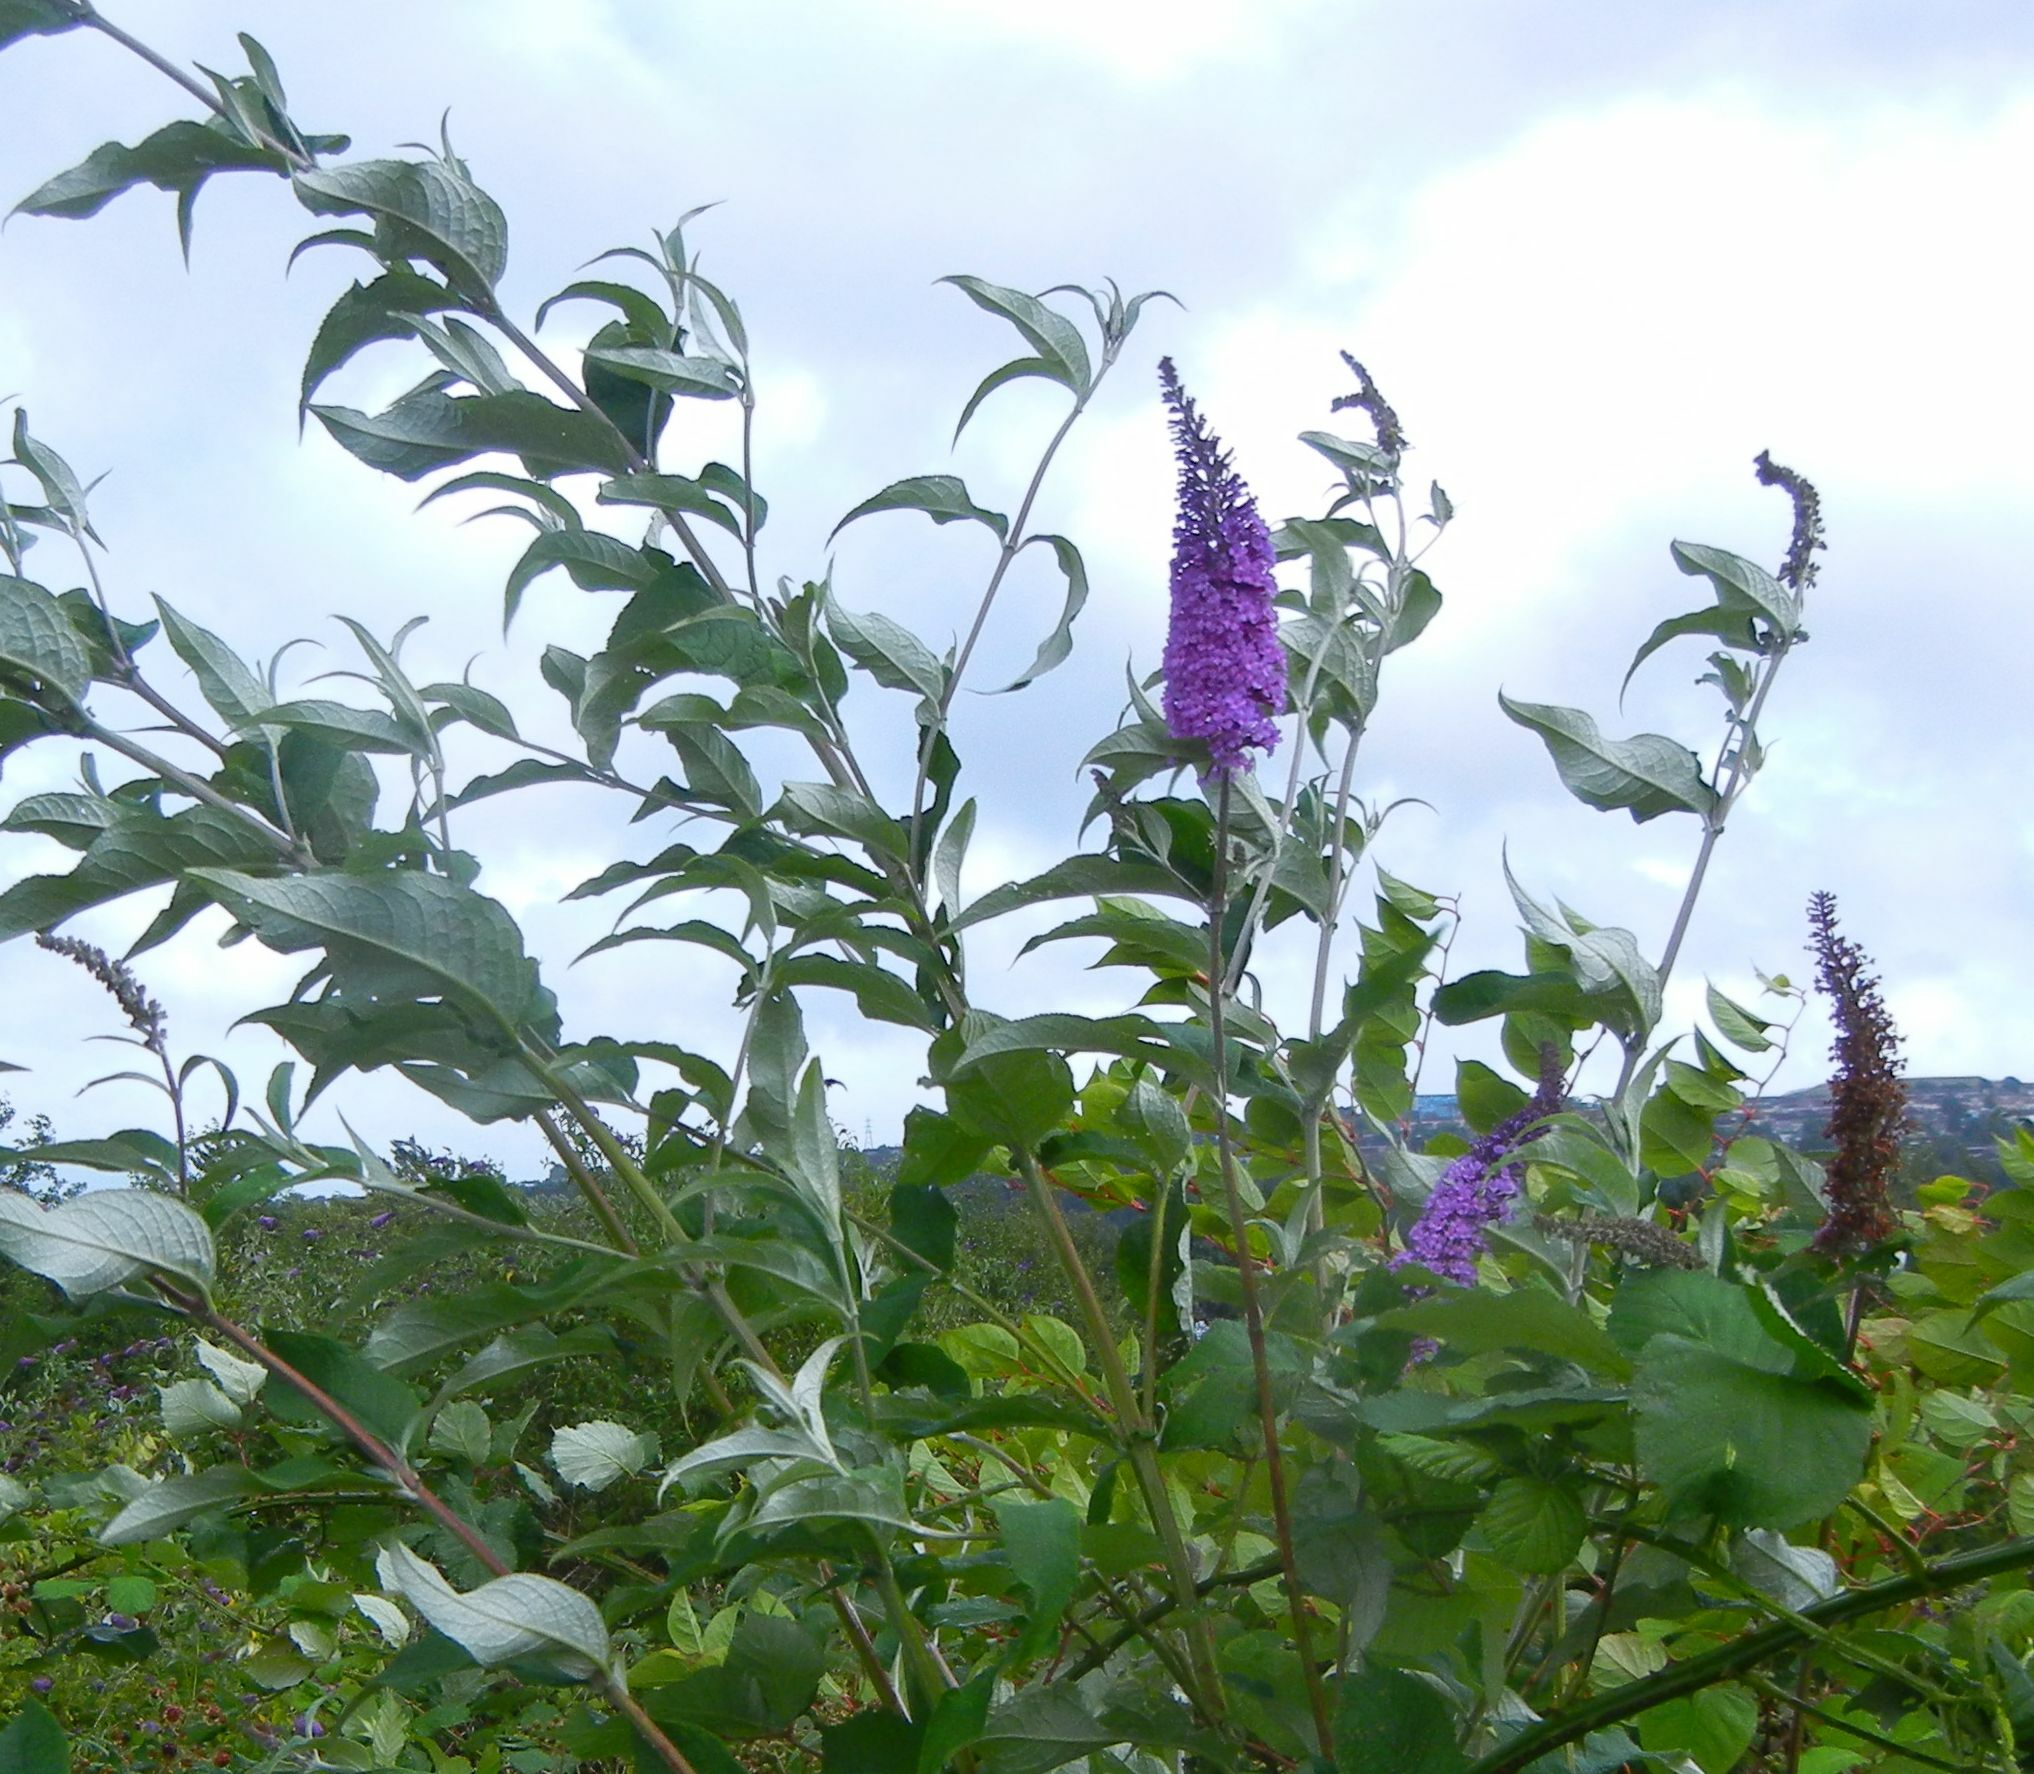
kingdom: Plantae
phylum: Tracheophyta
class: Magnoliopsida
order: Lamiales
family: Scrophulariaceae
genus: Buddleja
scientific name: Buddleja davidii
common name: Butterfly-bush
